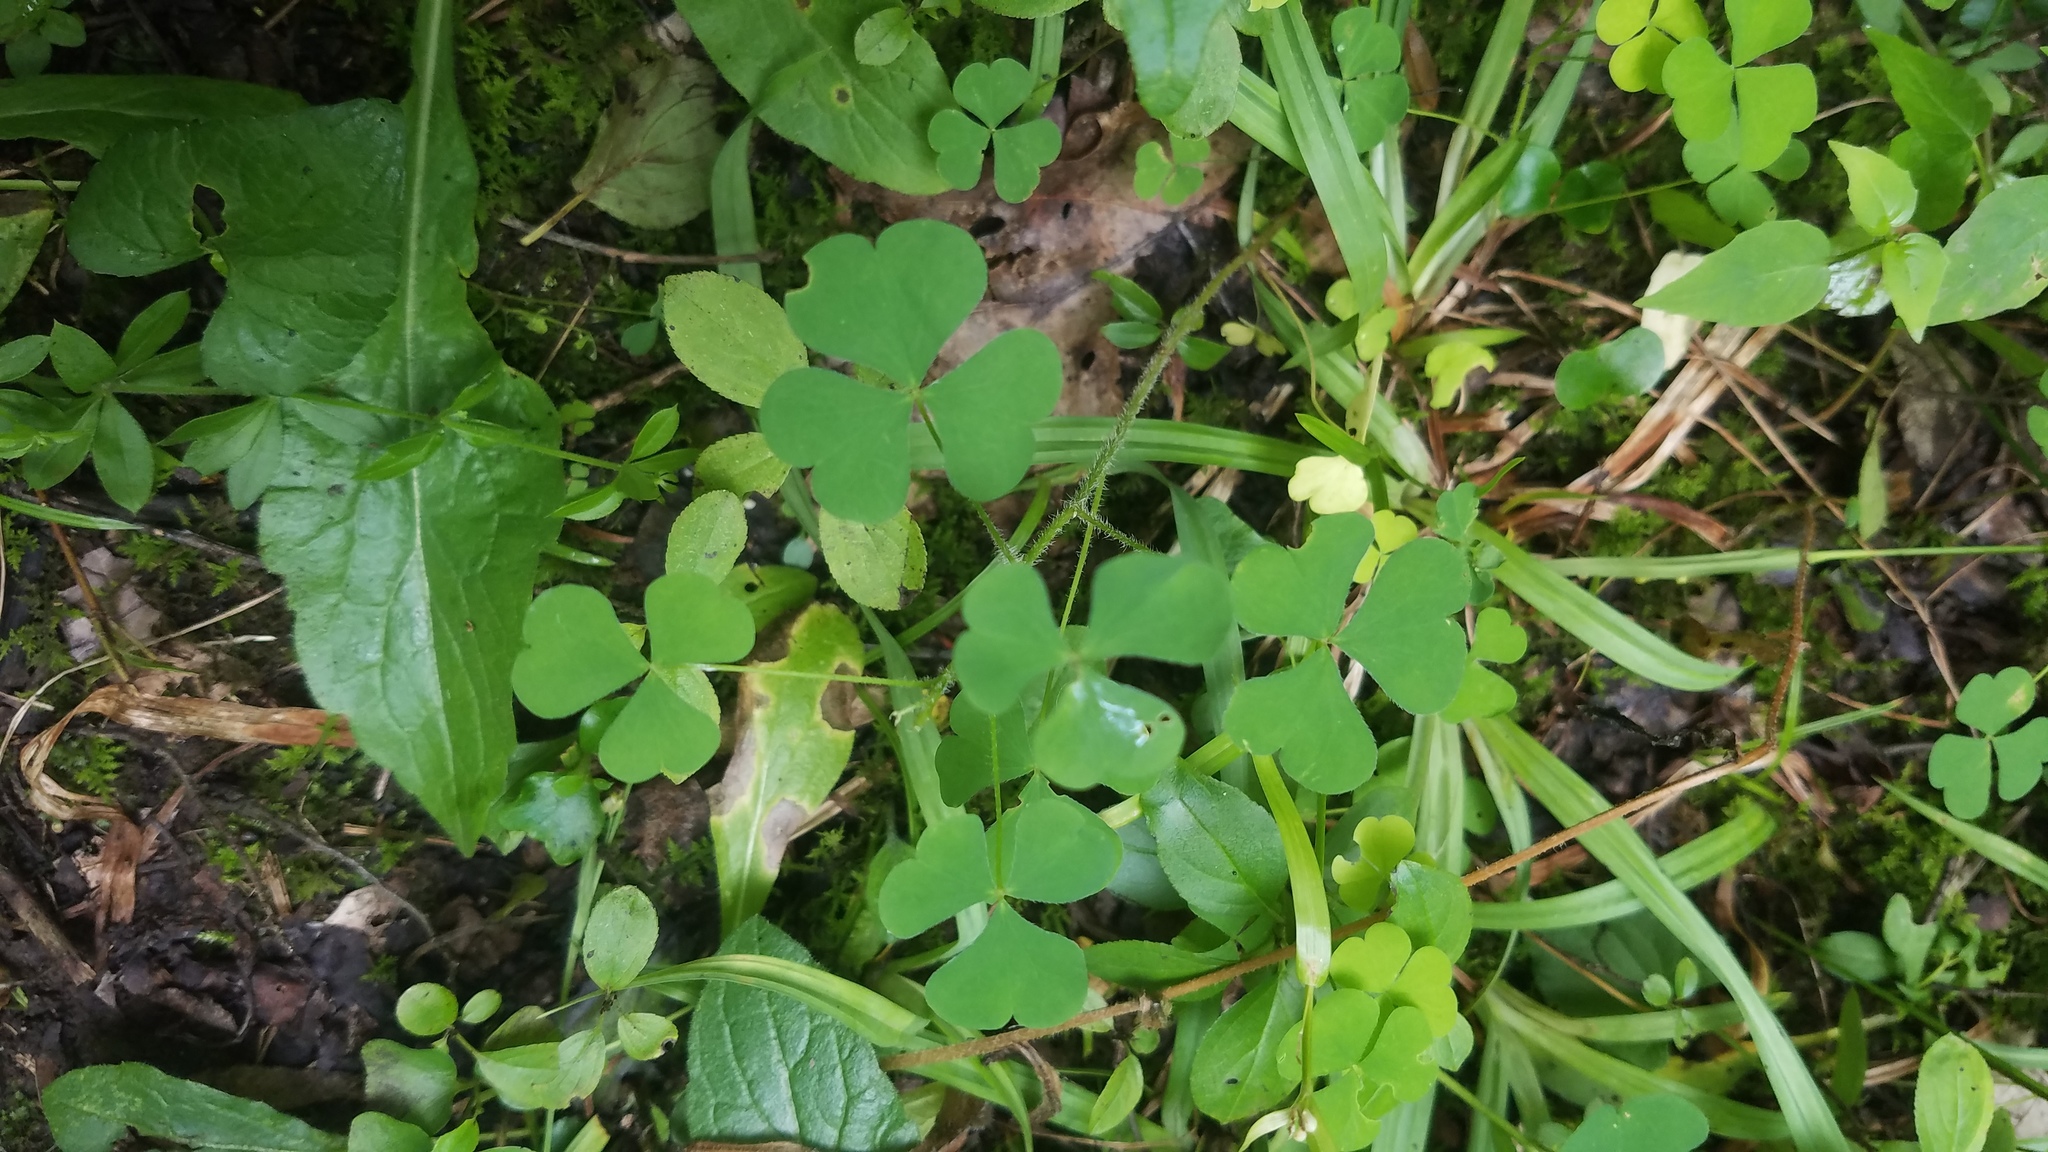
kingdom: Plantae
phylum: Tracheophyta
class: Magnoliopsida
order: Oxalidales
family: Oxalidaceae
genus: Oxalis
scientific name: Oxalis stricta
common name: Upright yellow-sorrel
